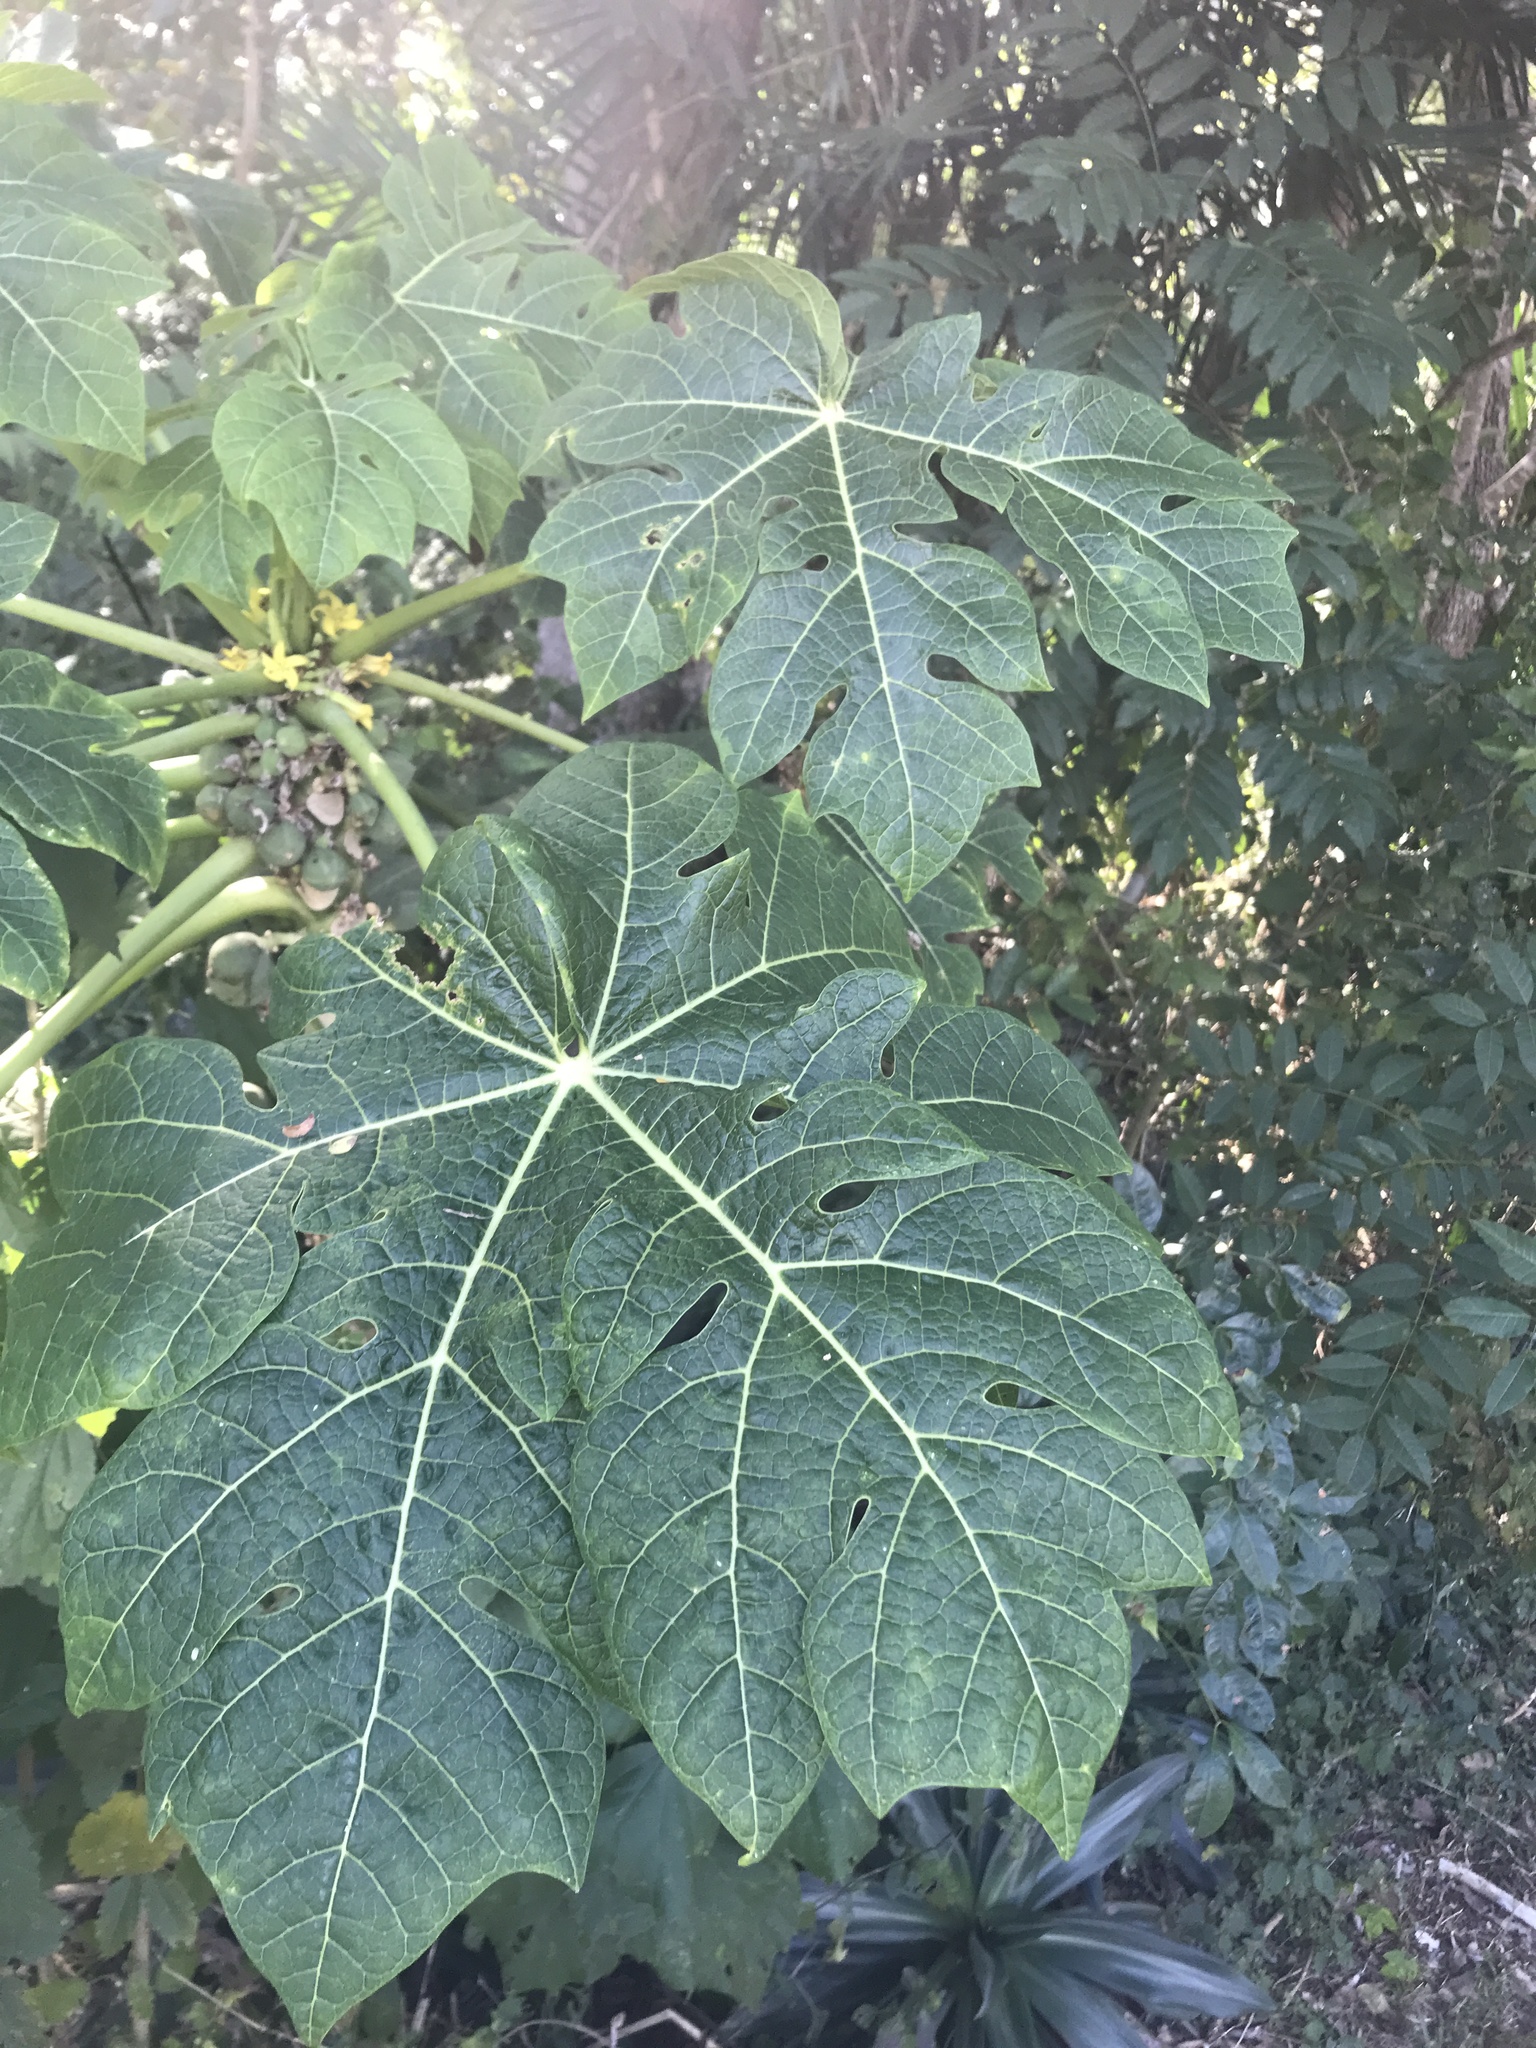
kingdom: Plantae
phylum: Tracheophyta
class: Magnoliopsida
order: Brassicales
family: Caricaceae
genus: Carica
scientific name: Carica papaya
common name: Papaya
